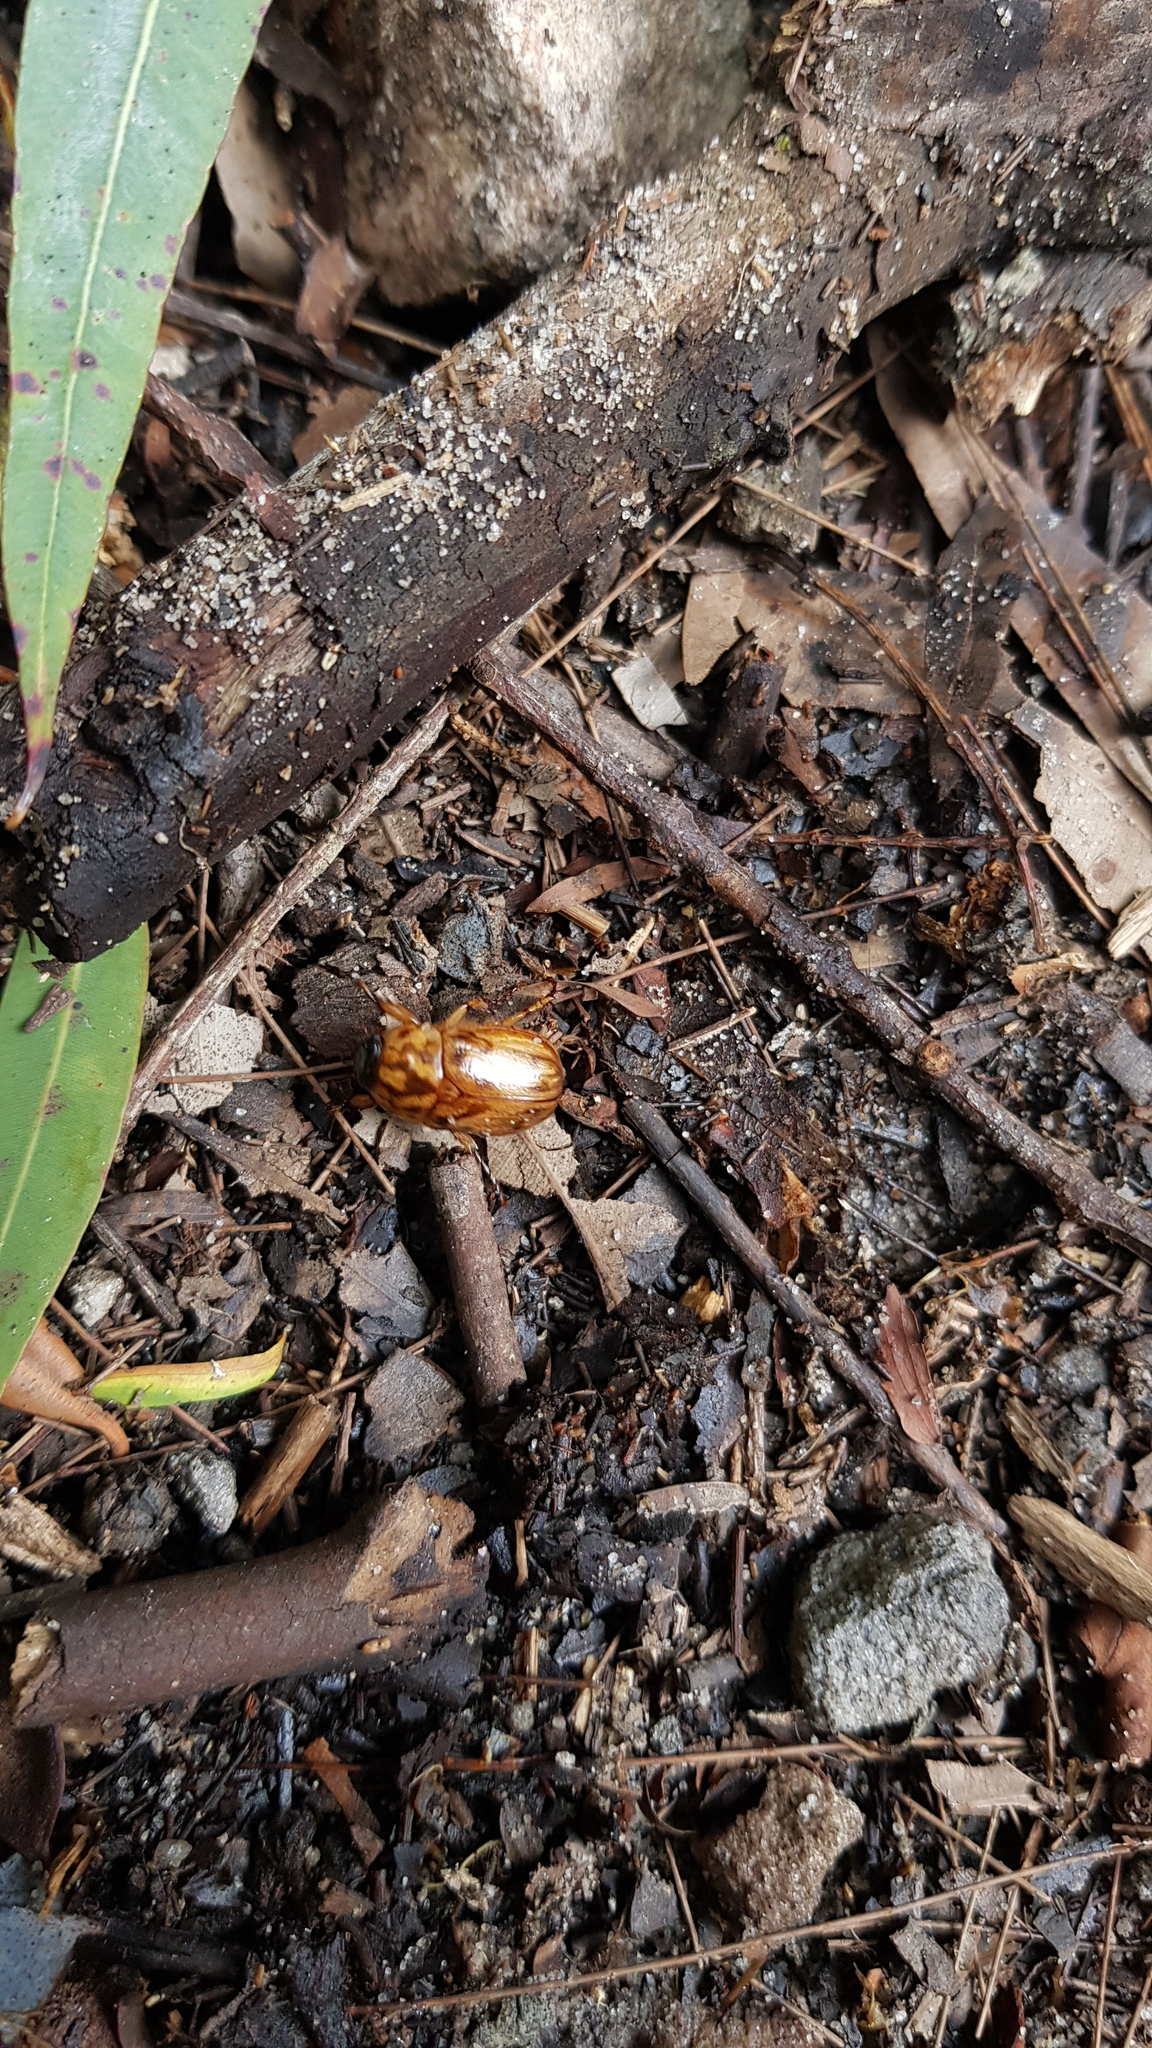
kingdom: Animalia
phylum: Arthropoda
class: Insecta
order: Coleoptera
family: Scarabaeidae
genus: Cyclocephala
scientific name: Cyclocephala signaticollis
